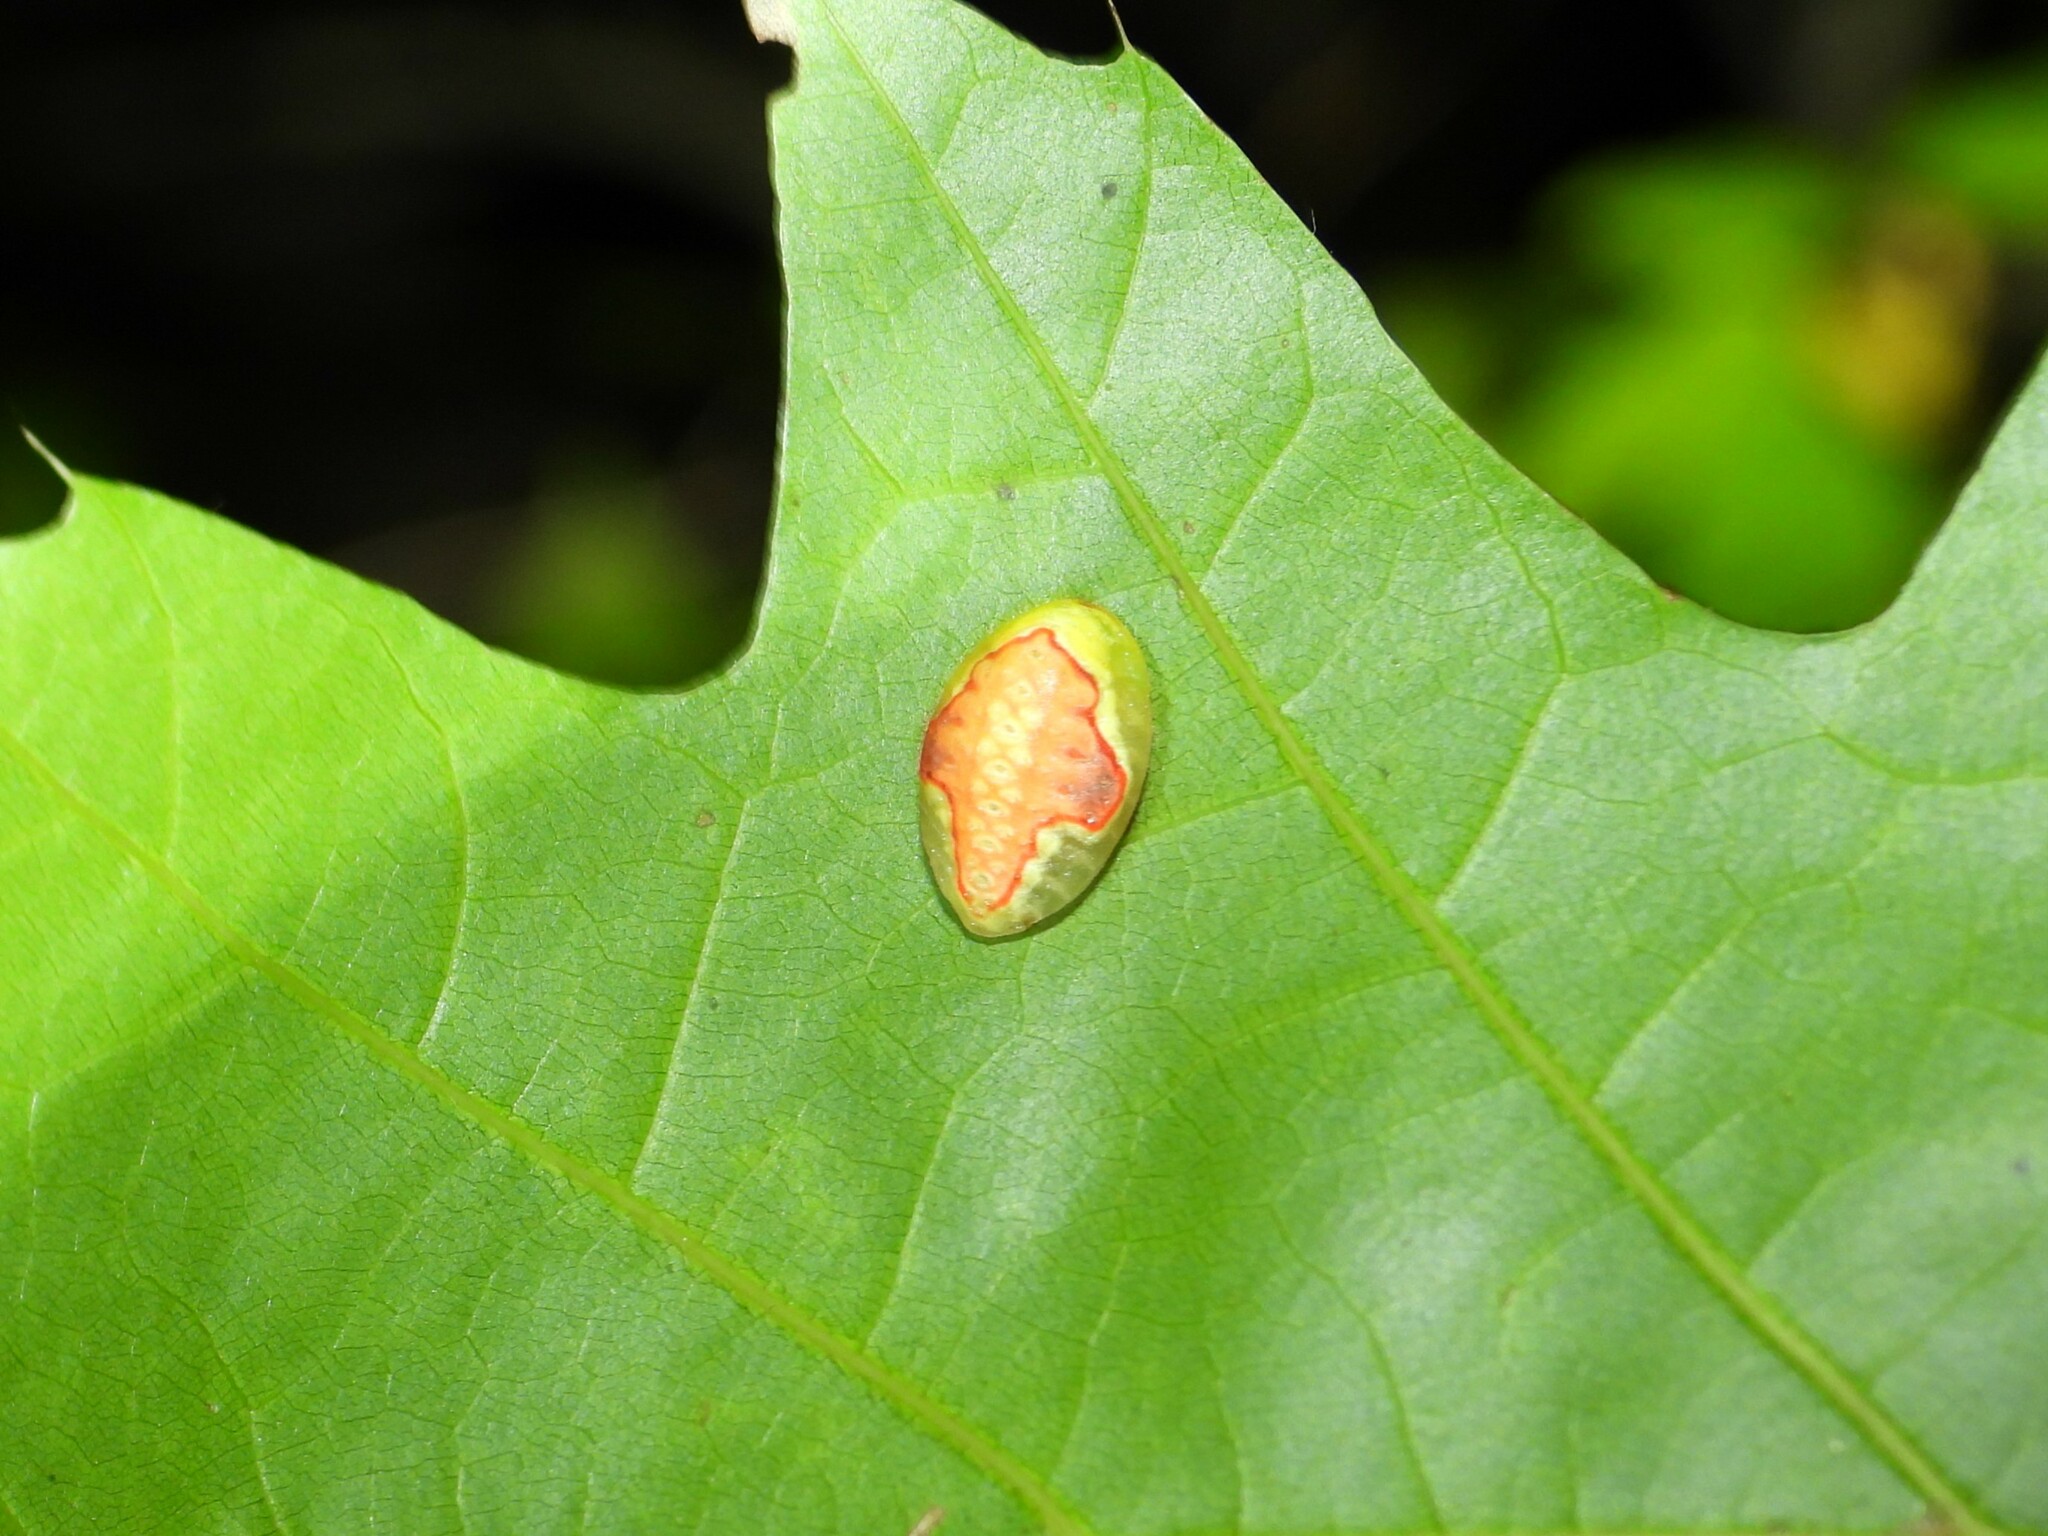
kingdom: Animalia
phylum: Arthropoda
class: Insecta
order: Lepidoptera
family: Limacodidae
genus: Tortricidia
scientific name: Tortricidia pallida
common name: Red-crossed button slug moth
